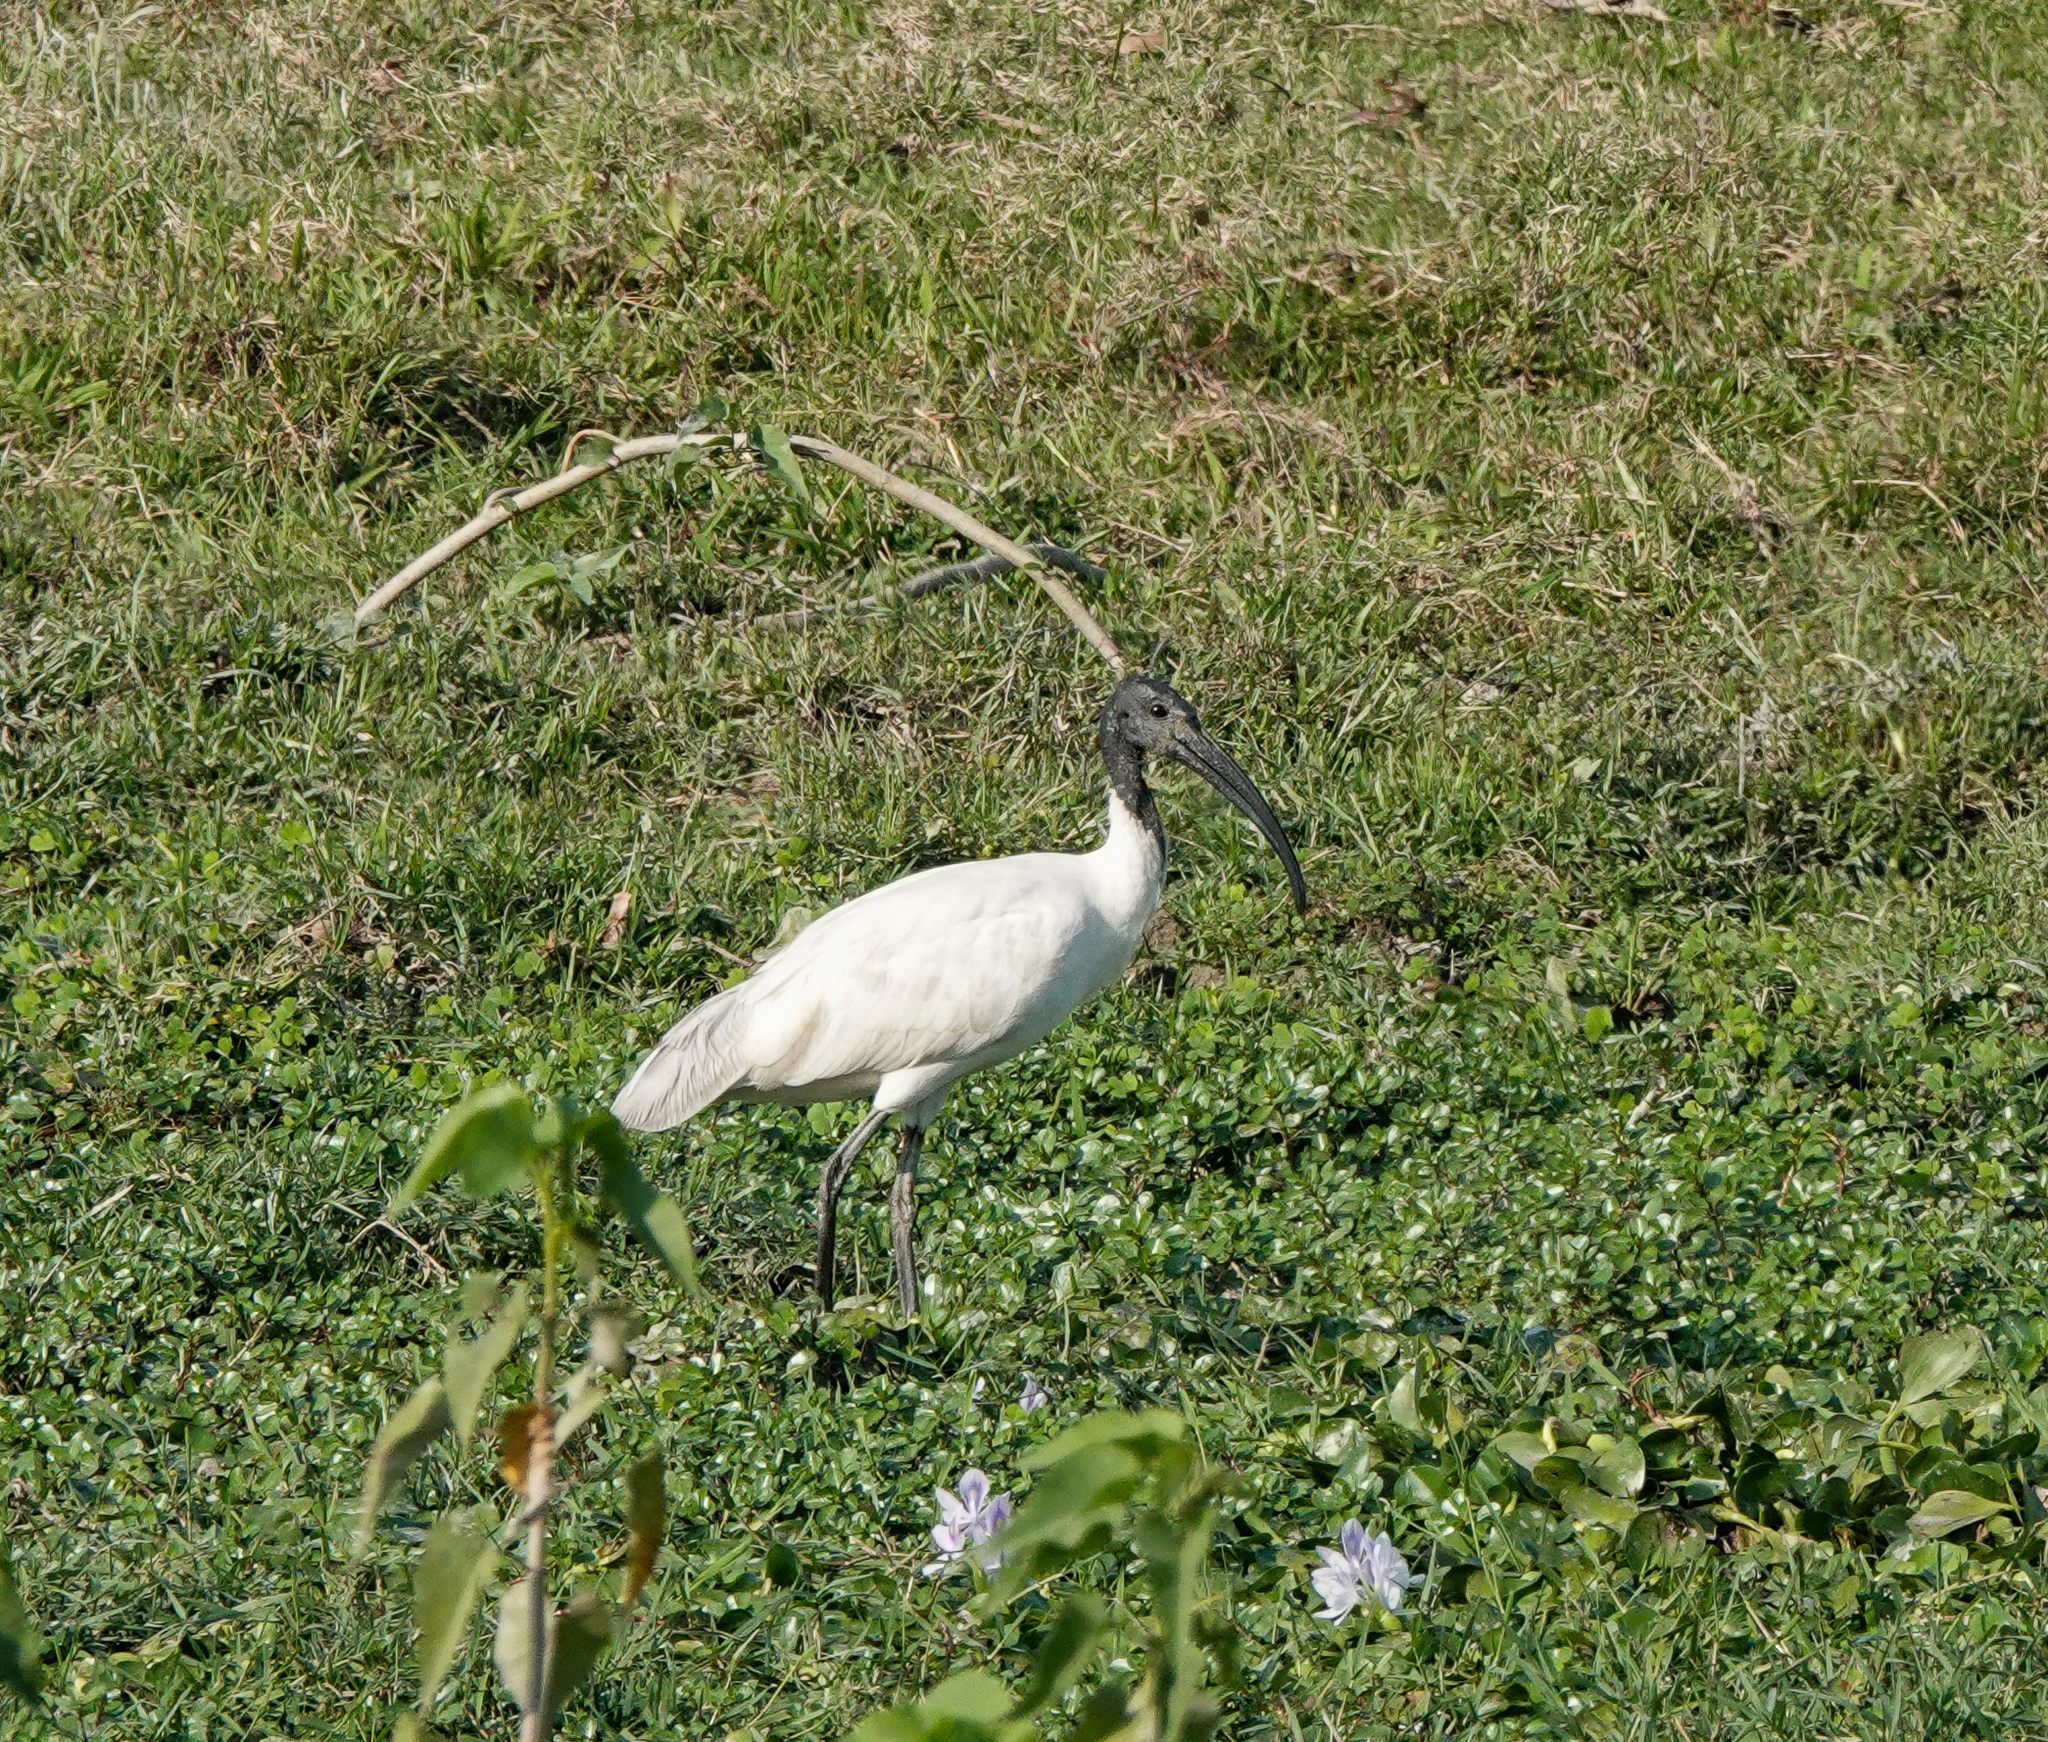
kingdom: Animalia
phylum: Chordata
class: Aves
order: Pelecaniformes
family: Threskiornithidae
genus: Threskiornis
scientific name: Threskiornis melanocephalus
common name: Black-headed ibis
